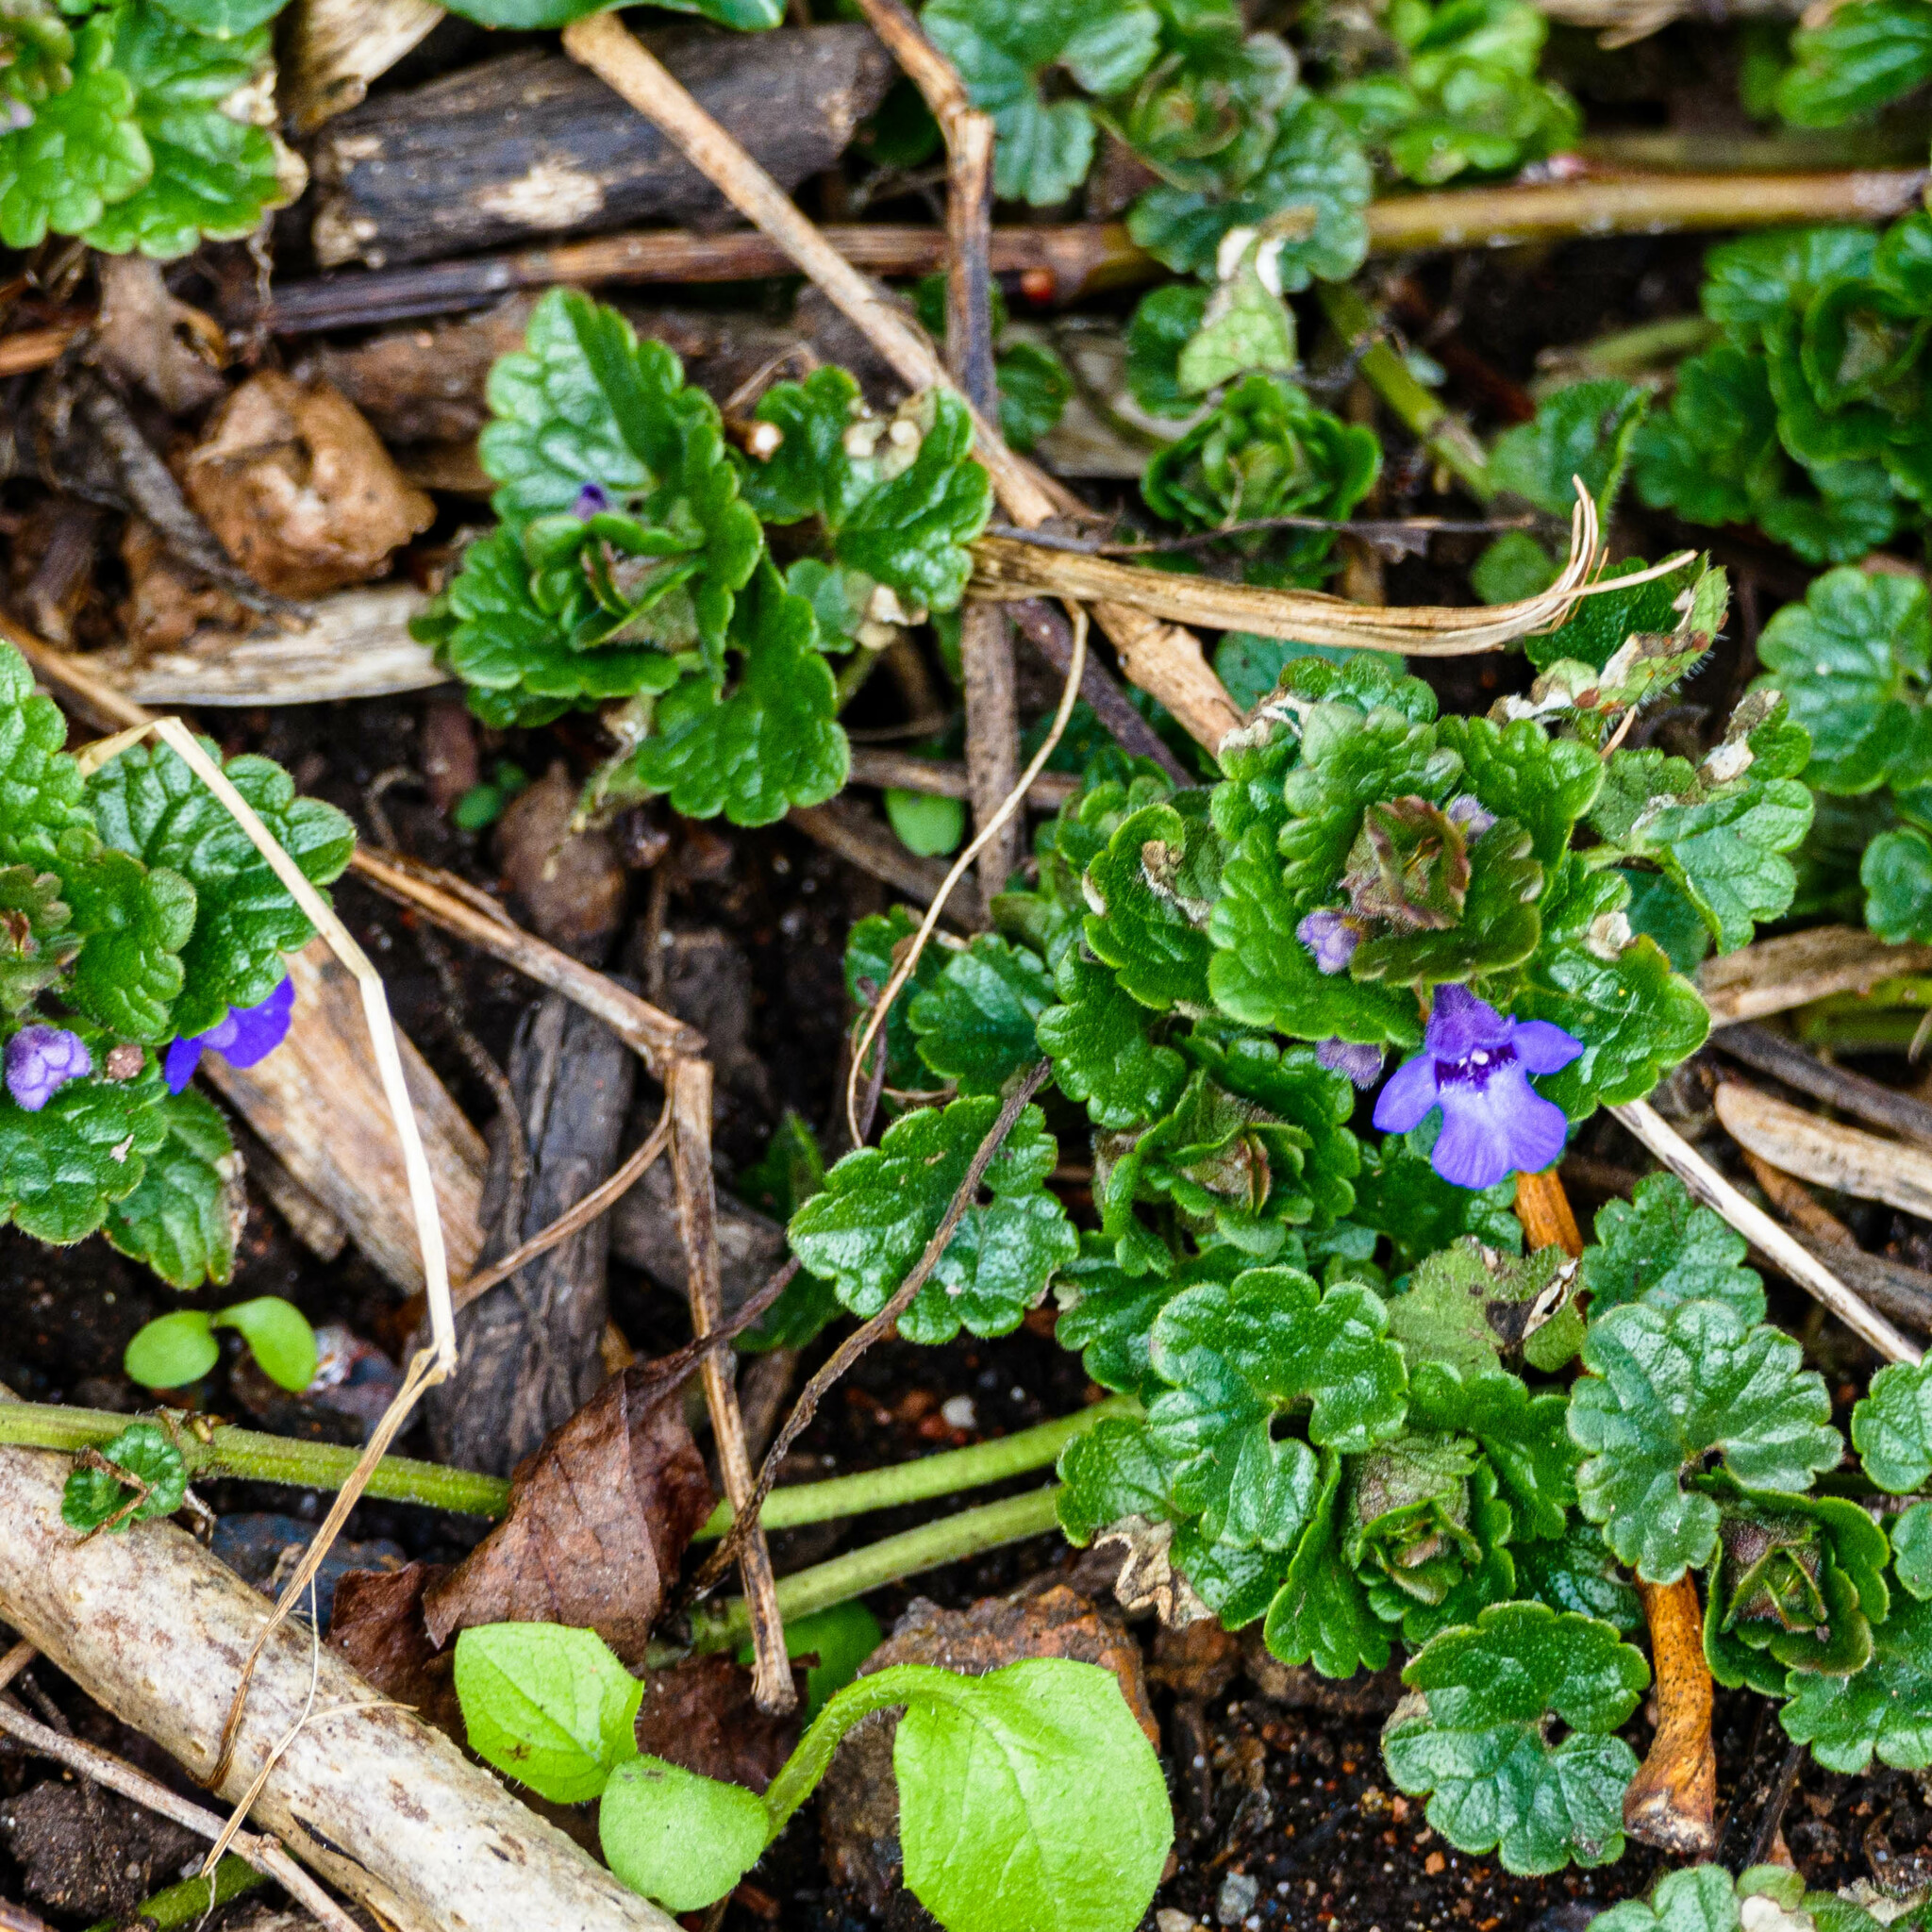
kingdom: Plantae
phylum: Tracheophyta
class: Magnoliopsida
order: Lamiales
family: Lamiaceae
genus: Glechoma
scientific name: Glechoma hederacea
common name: Ground ivy
